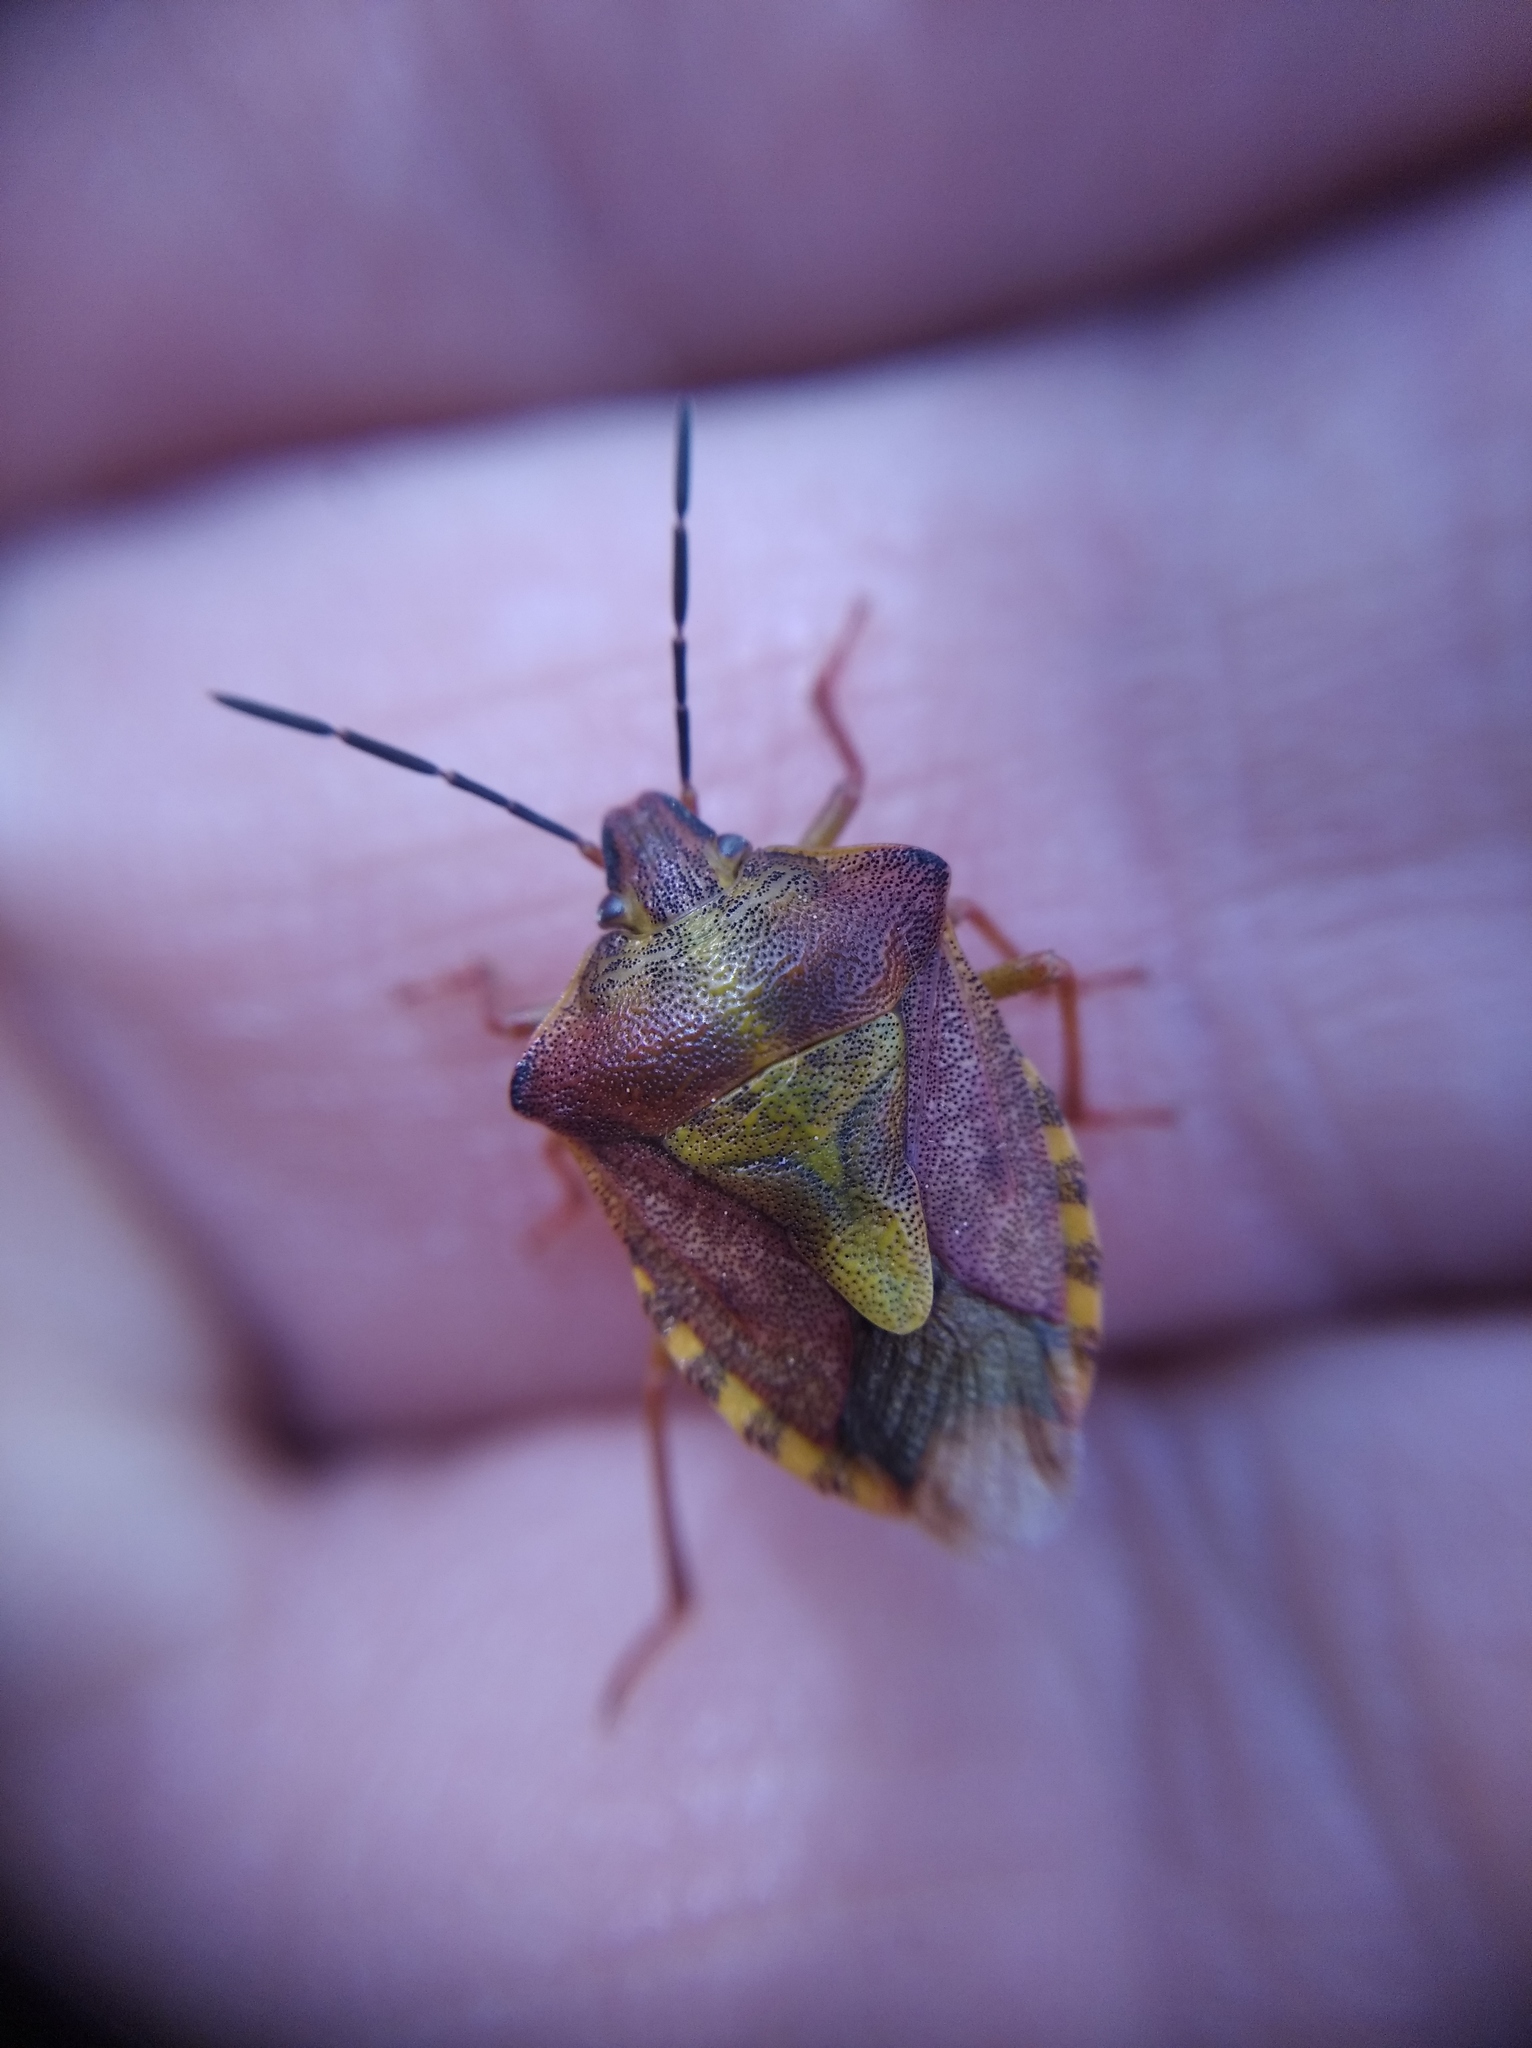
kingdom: Animalia
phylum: Arthropoda
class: Insecta
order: Hemiptera
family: Pentatomidae
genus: Carpocoris
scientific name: Carpocoris purpureipennis
